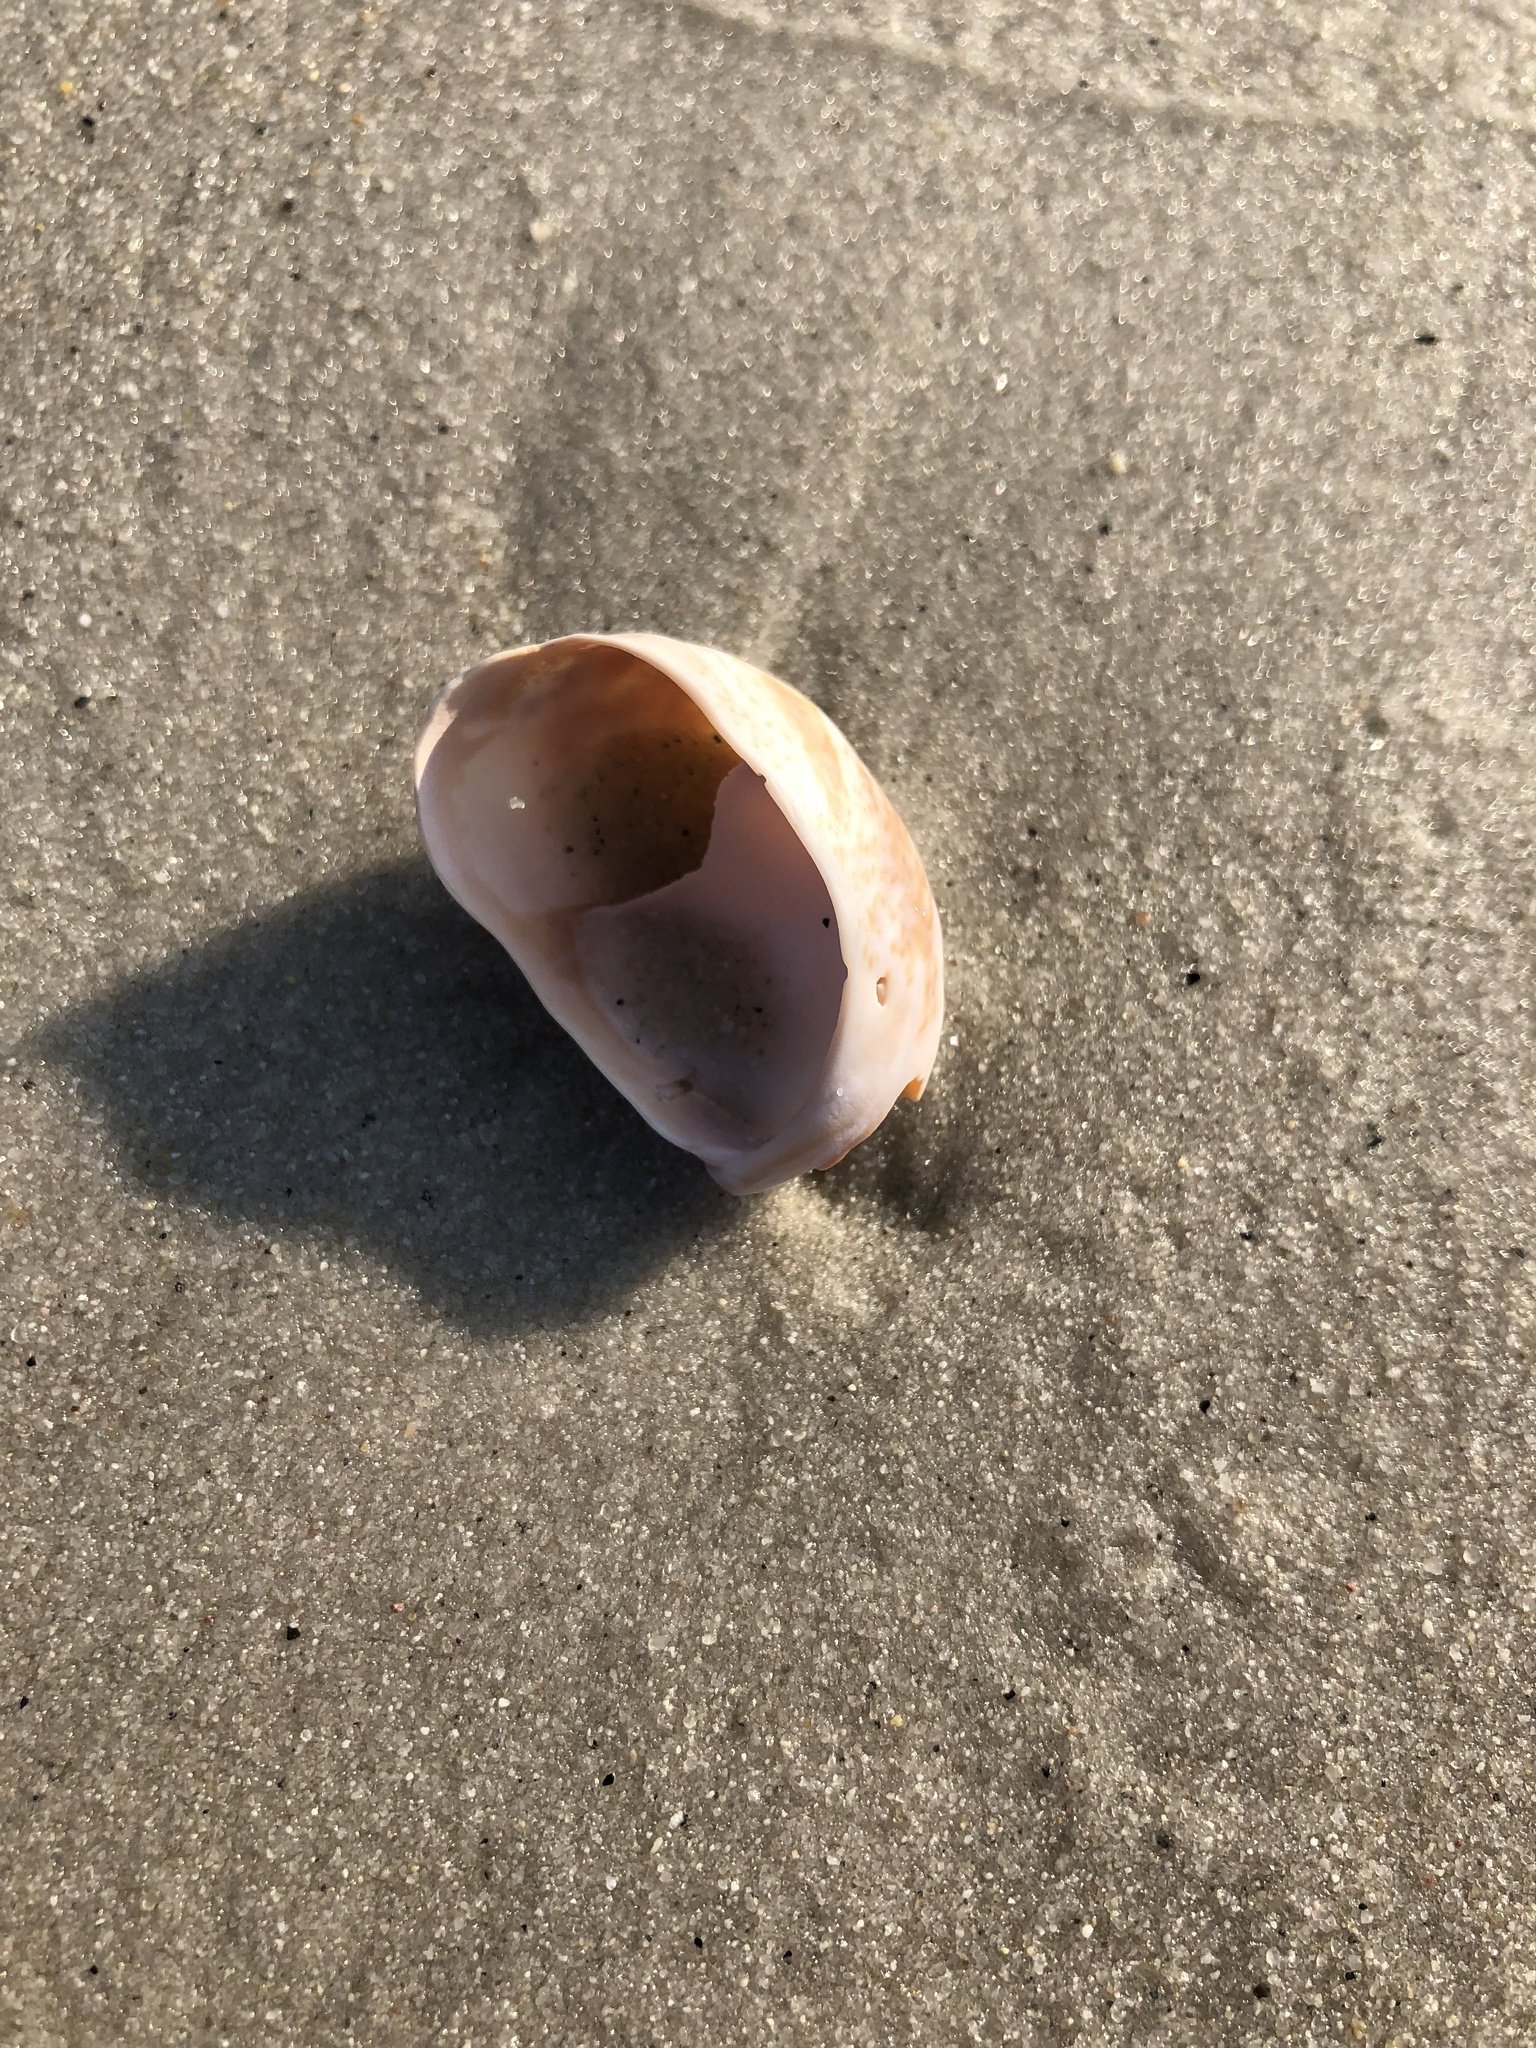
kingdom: Animalia
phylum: Mollusca
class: Gastropoda
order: Littorinimorpha
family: Calyptraeidae
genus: Crepidula
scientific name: Crepidula fornicata
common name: Slipper limpet
